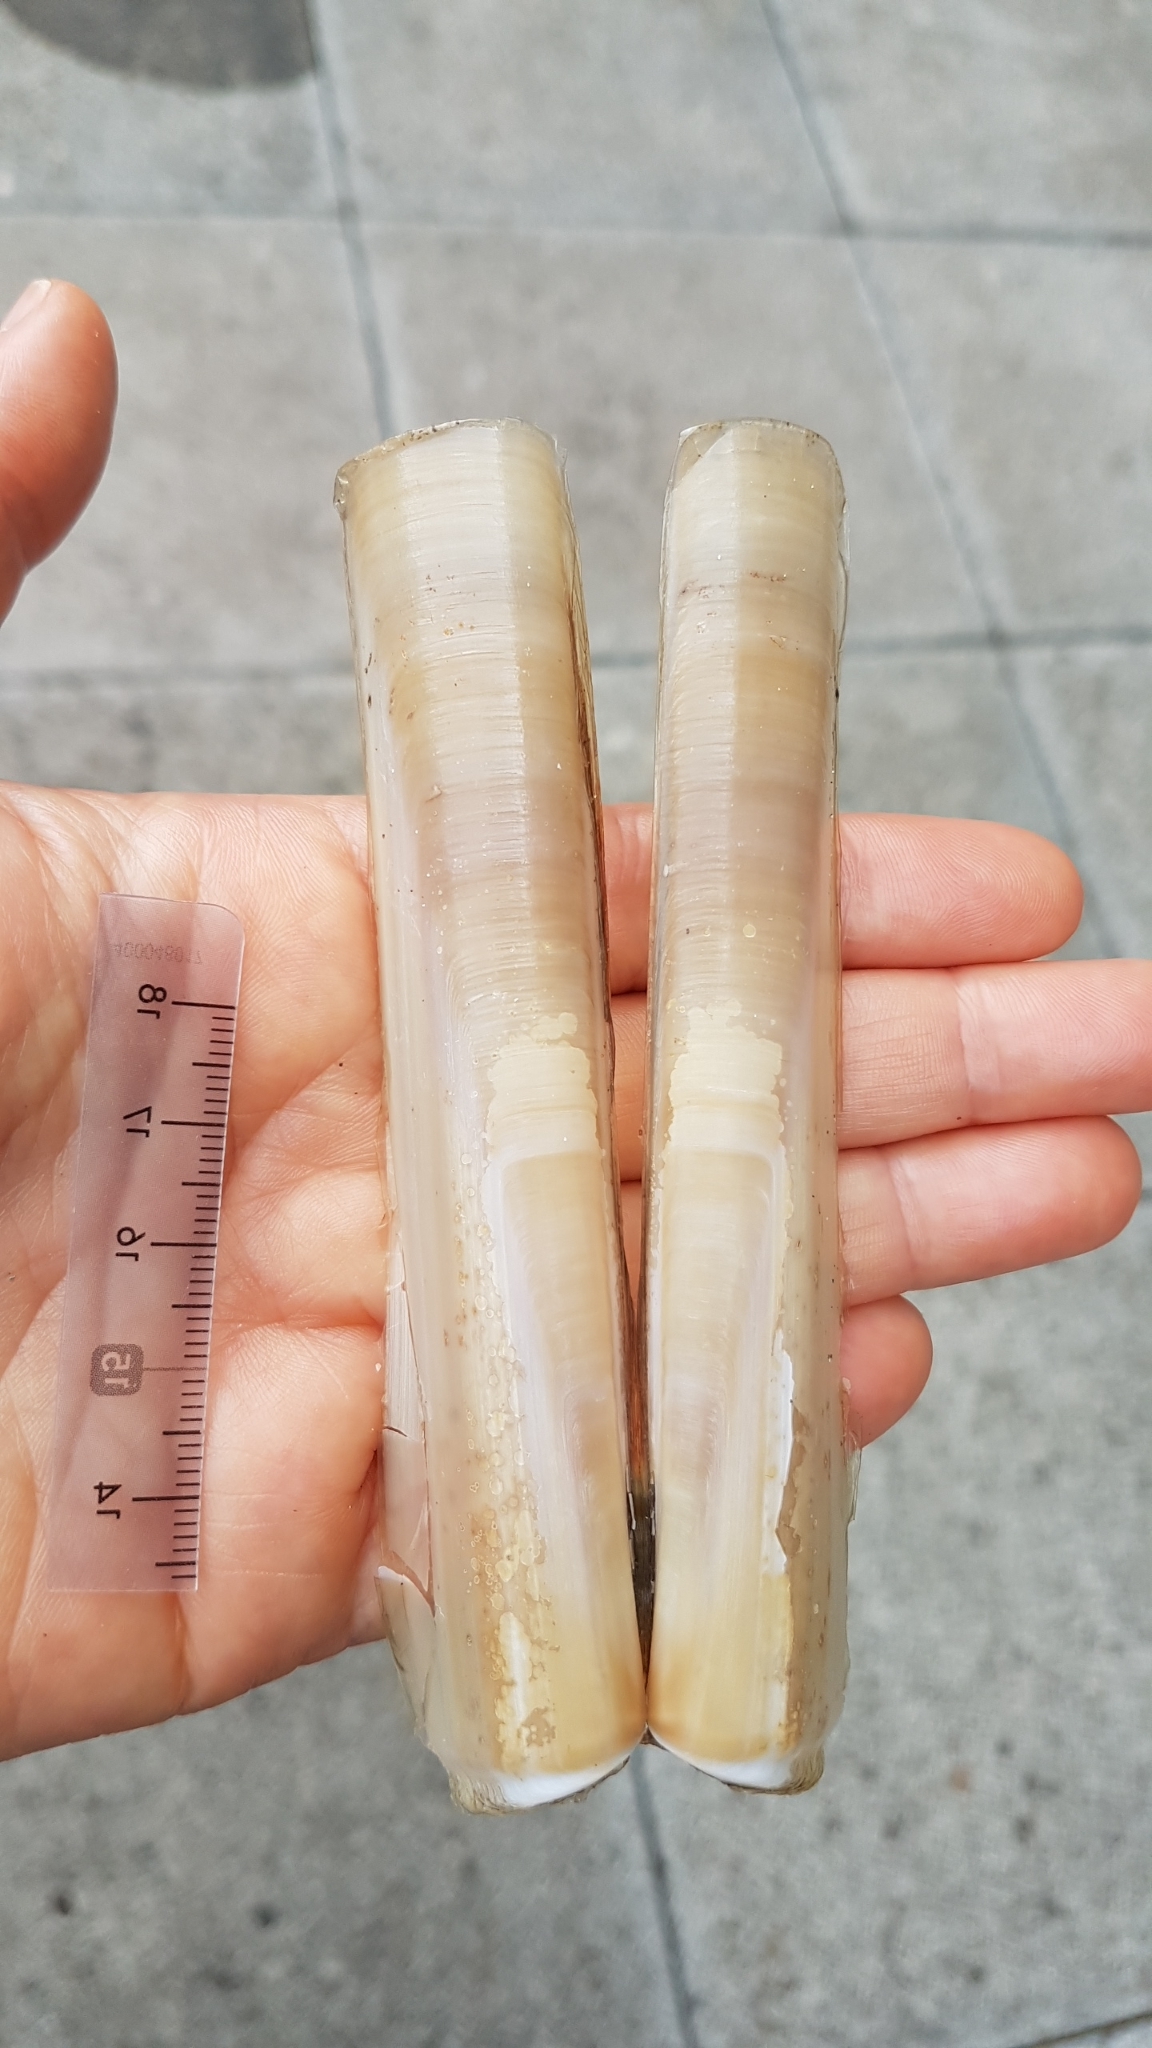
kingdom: Animalia
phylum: Mollusca
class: Bivalvia
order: Adapedonta
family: Solenidae
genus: Solen
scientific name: Solen marginatus
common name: Grooved razor shell
